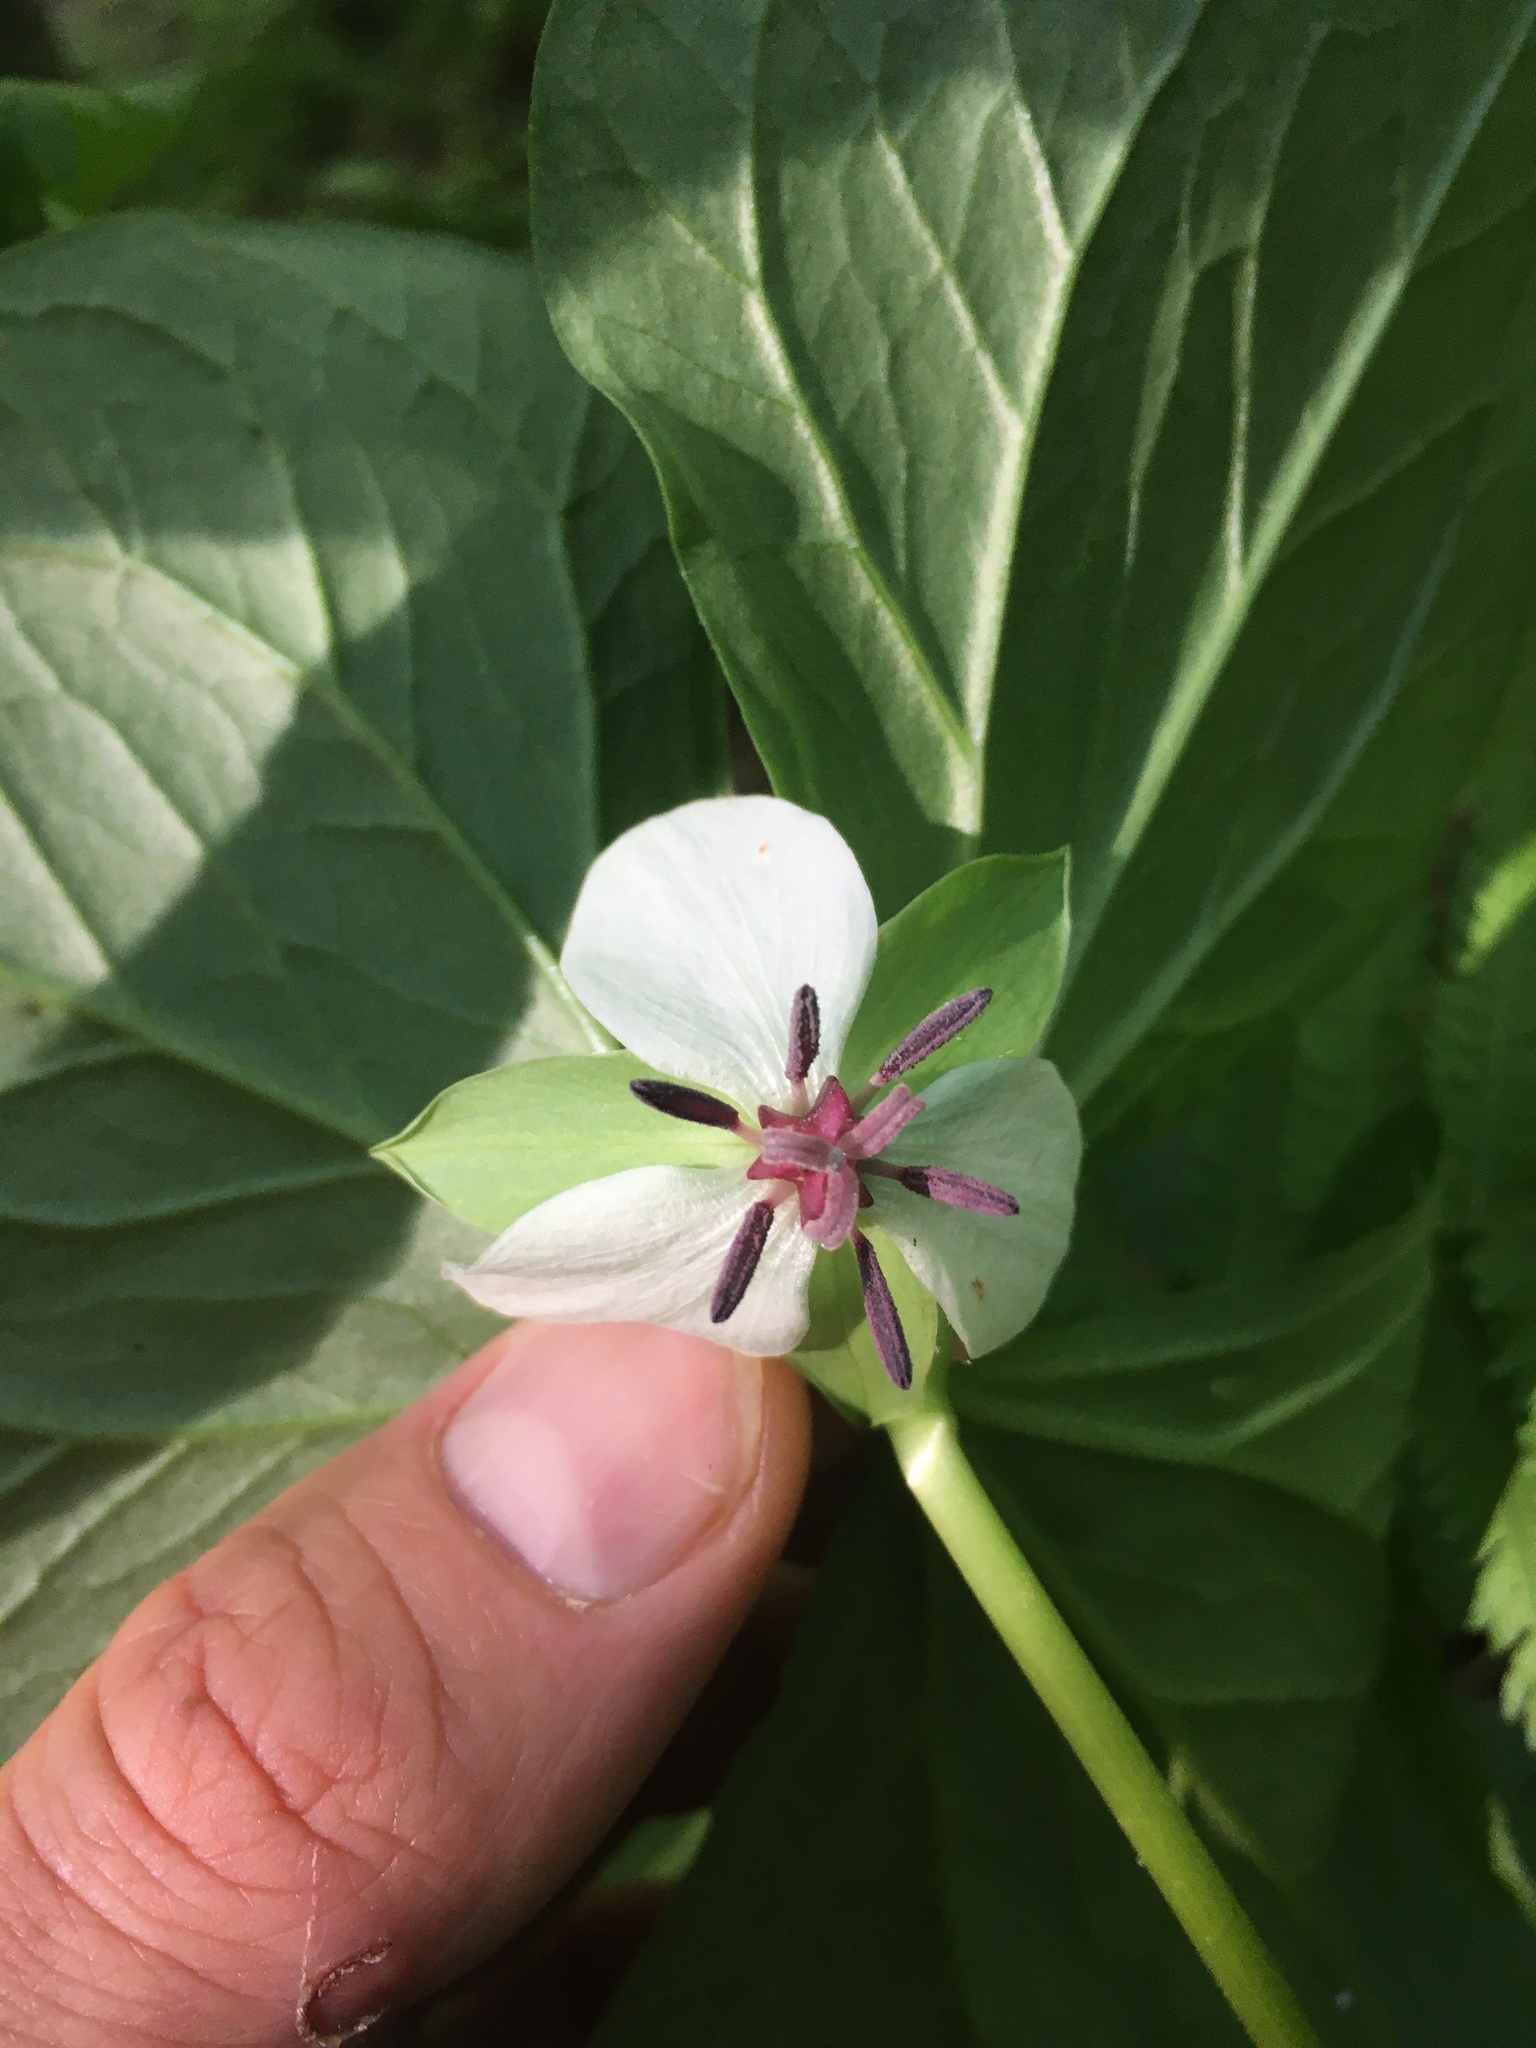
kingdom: Plantae
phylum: Tracheophyta
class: Liliopsida
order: Liliales
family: Melanthiaceae
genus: Trillium
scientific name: Trillium rugelii
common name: Ill-scented trillium
